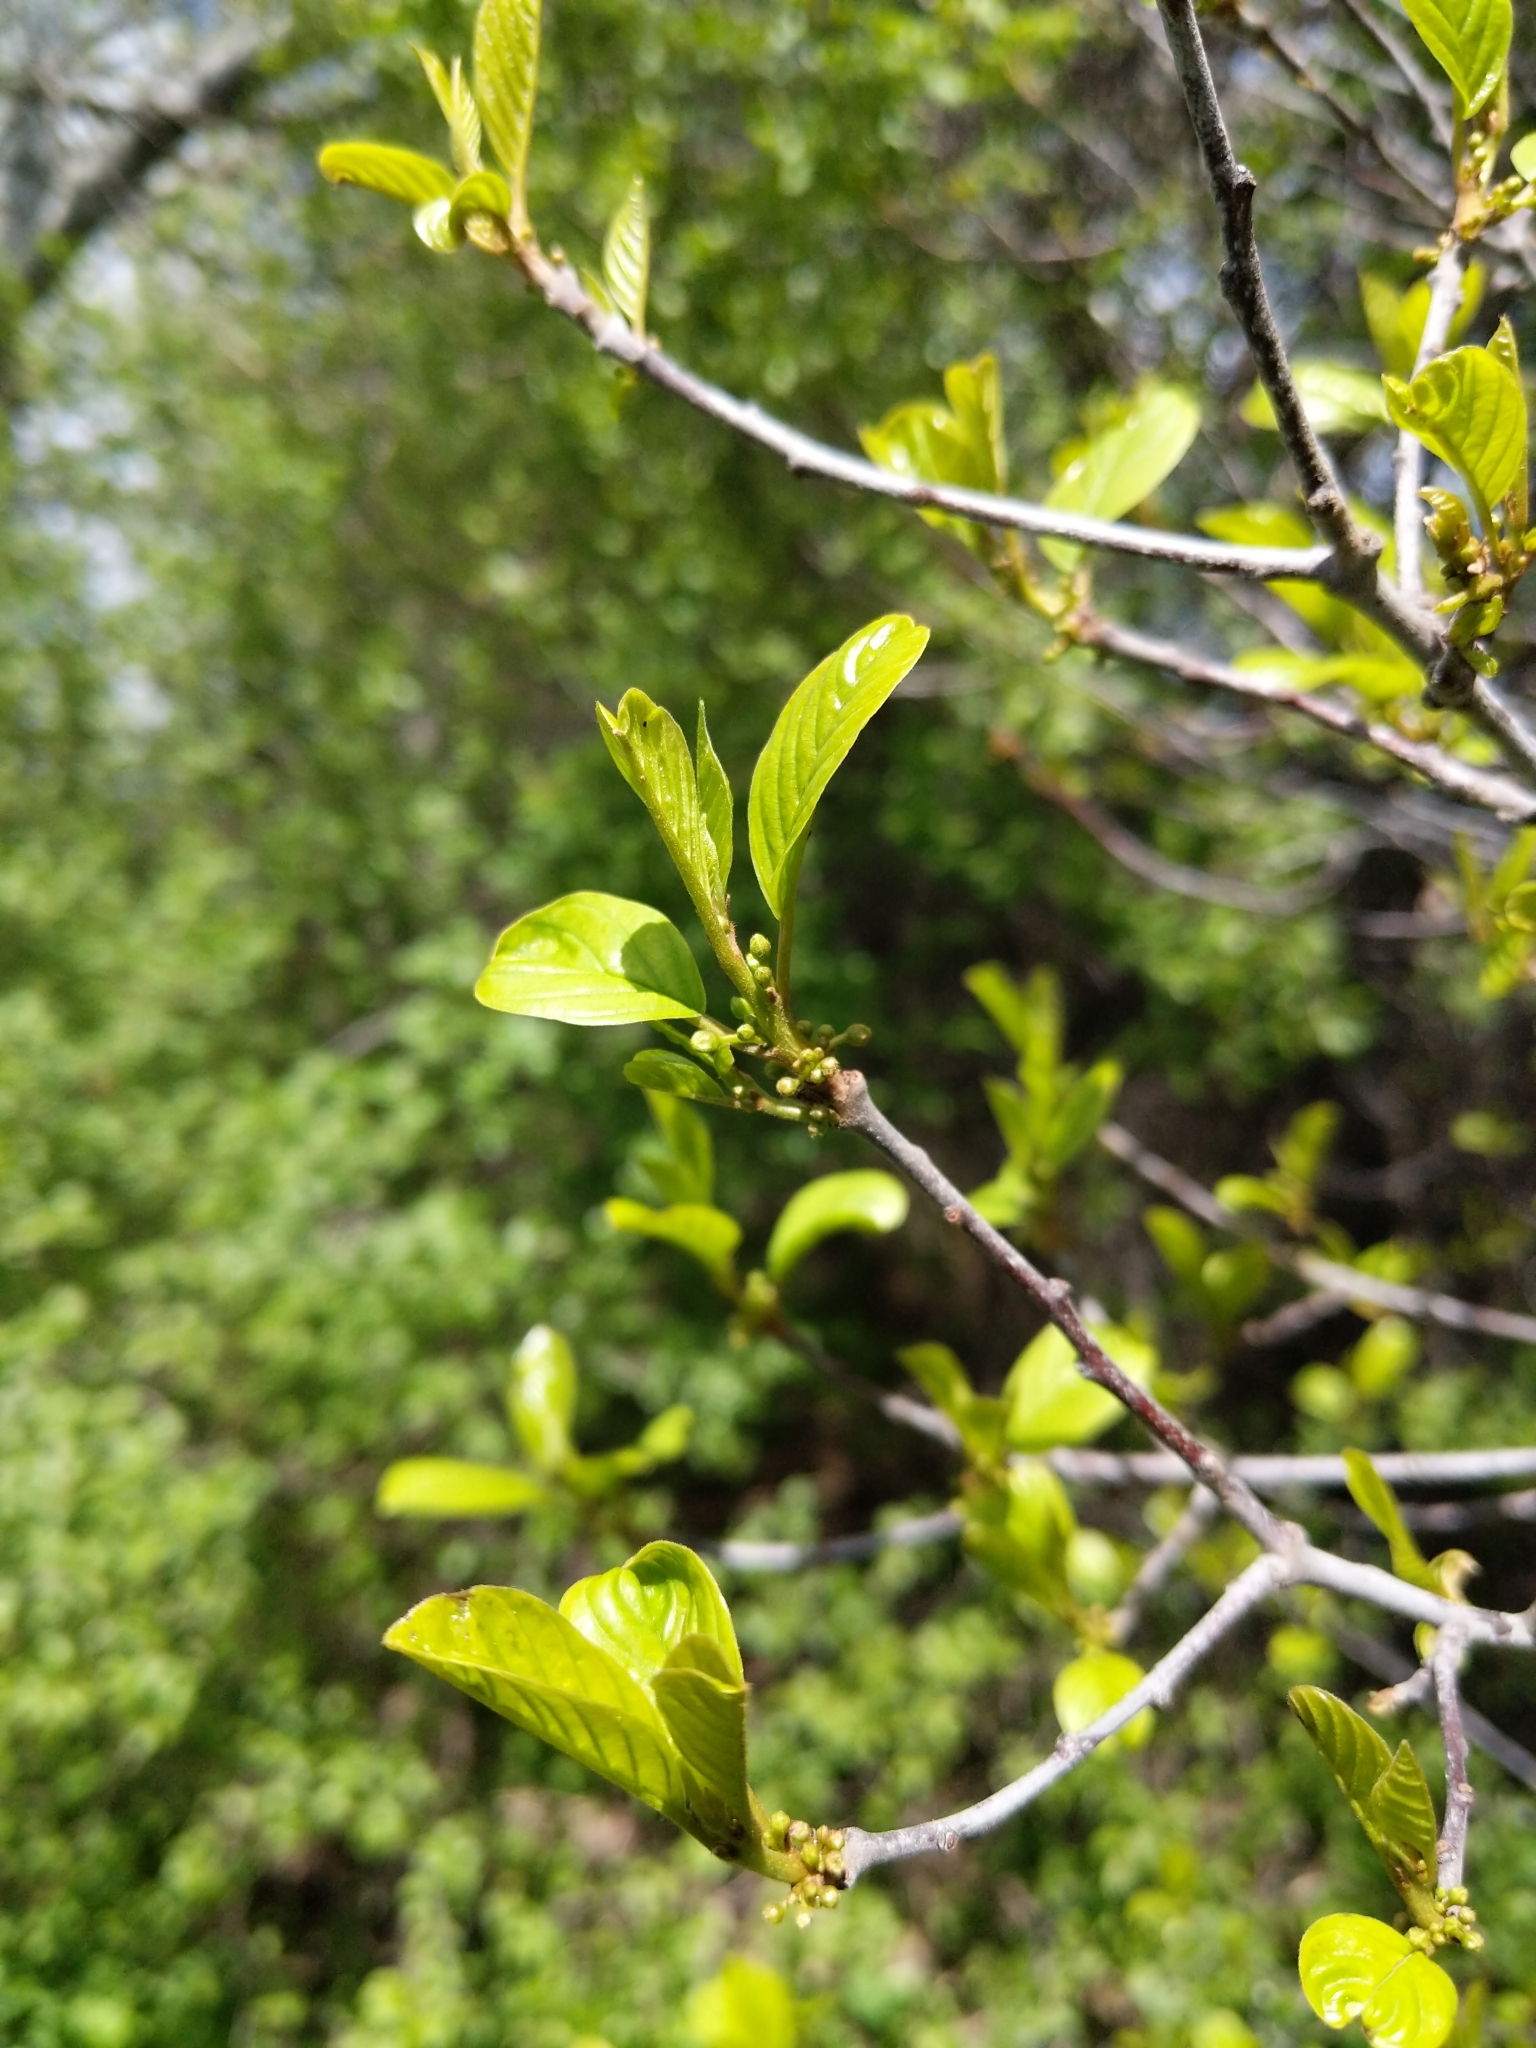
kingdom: Plantae
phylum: Tracheophyta
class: Magnoliopsida
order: Rosales
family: Rhamnaceae
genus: Frangula
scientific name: Frangula alnus
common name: Alder buckthorn
